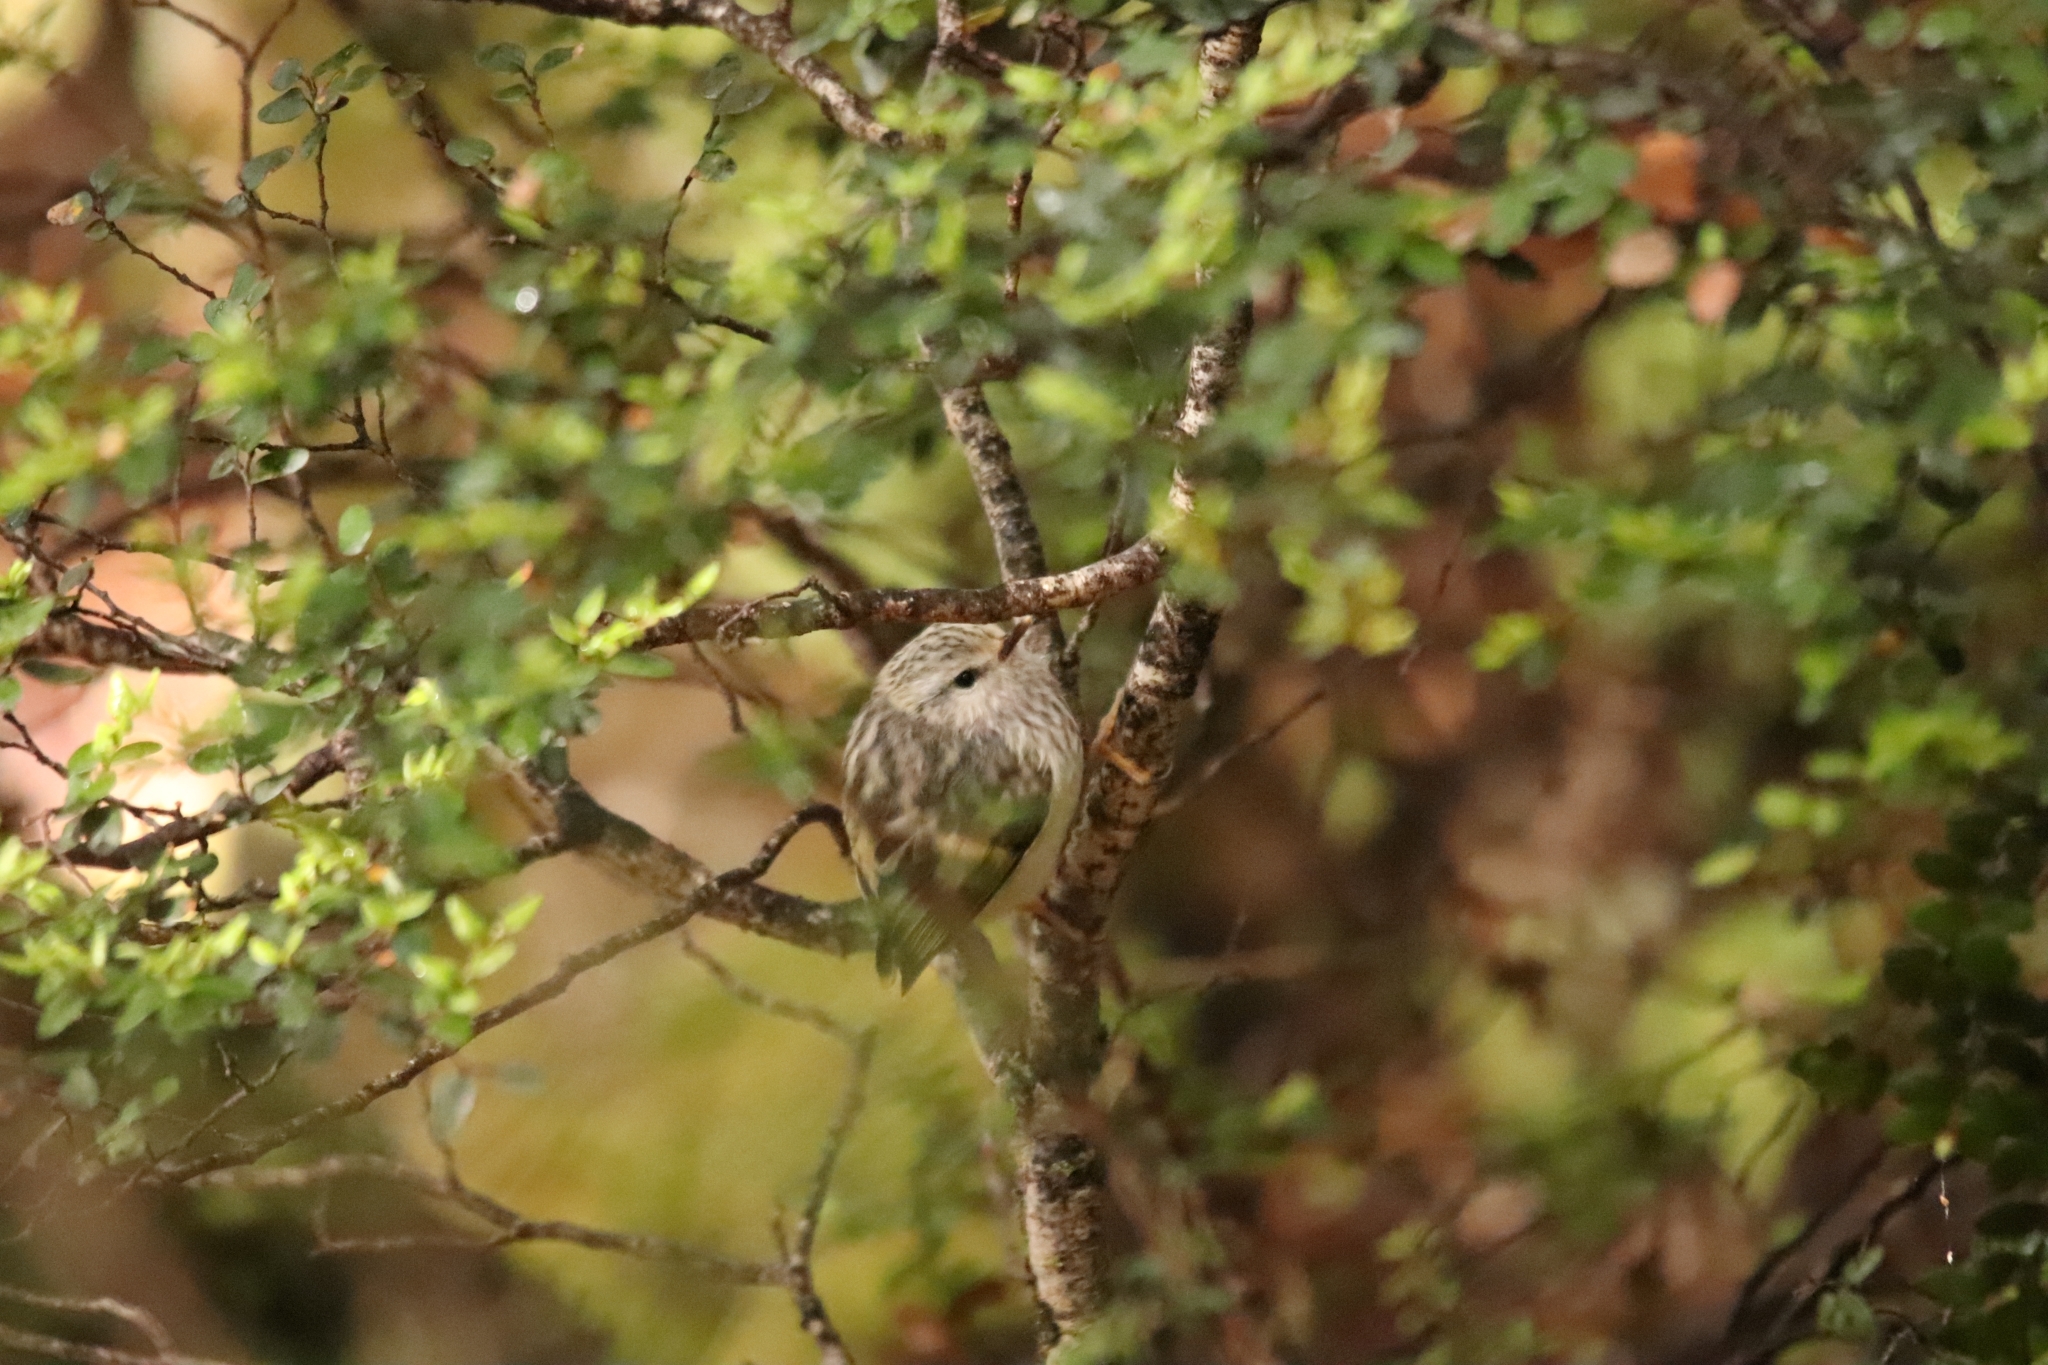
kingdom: Animalia
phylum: Chordata
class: Aves
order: Passeriformes
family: Acanthisittidae
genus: Acanthisitta
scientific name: Acanthisitta chloris
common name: Rifleman
